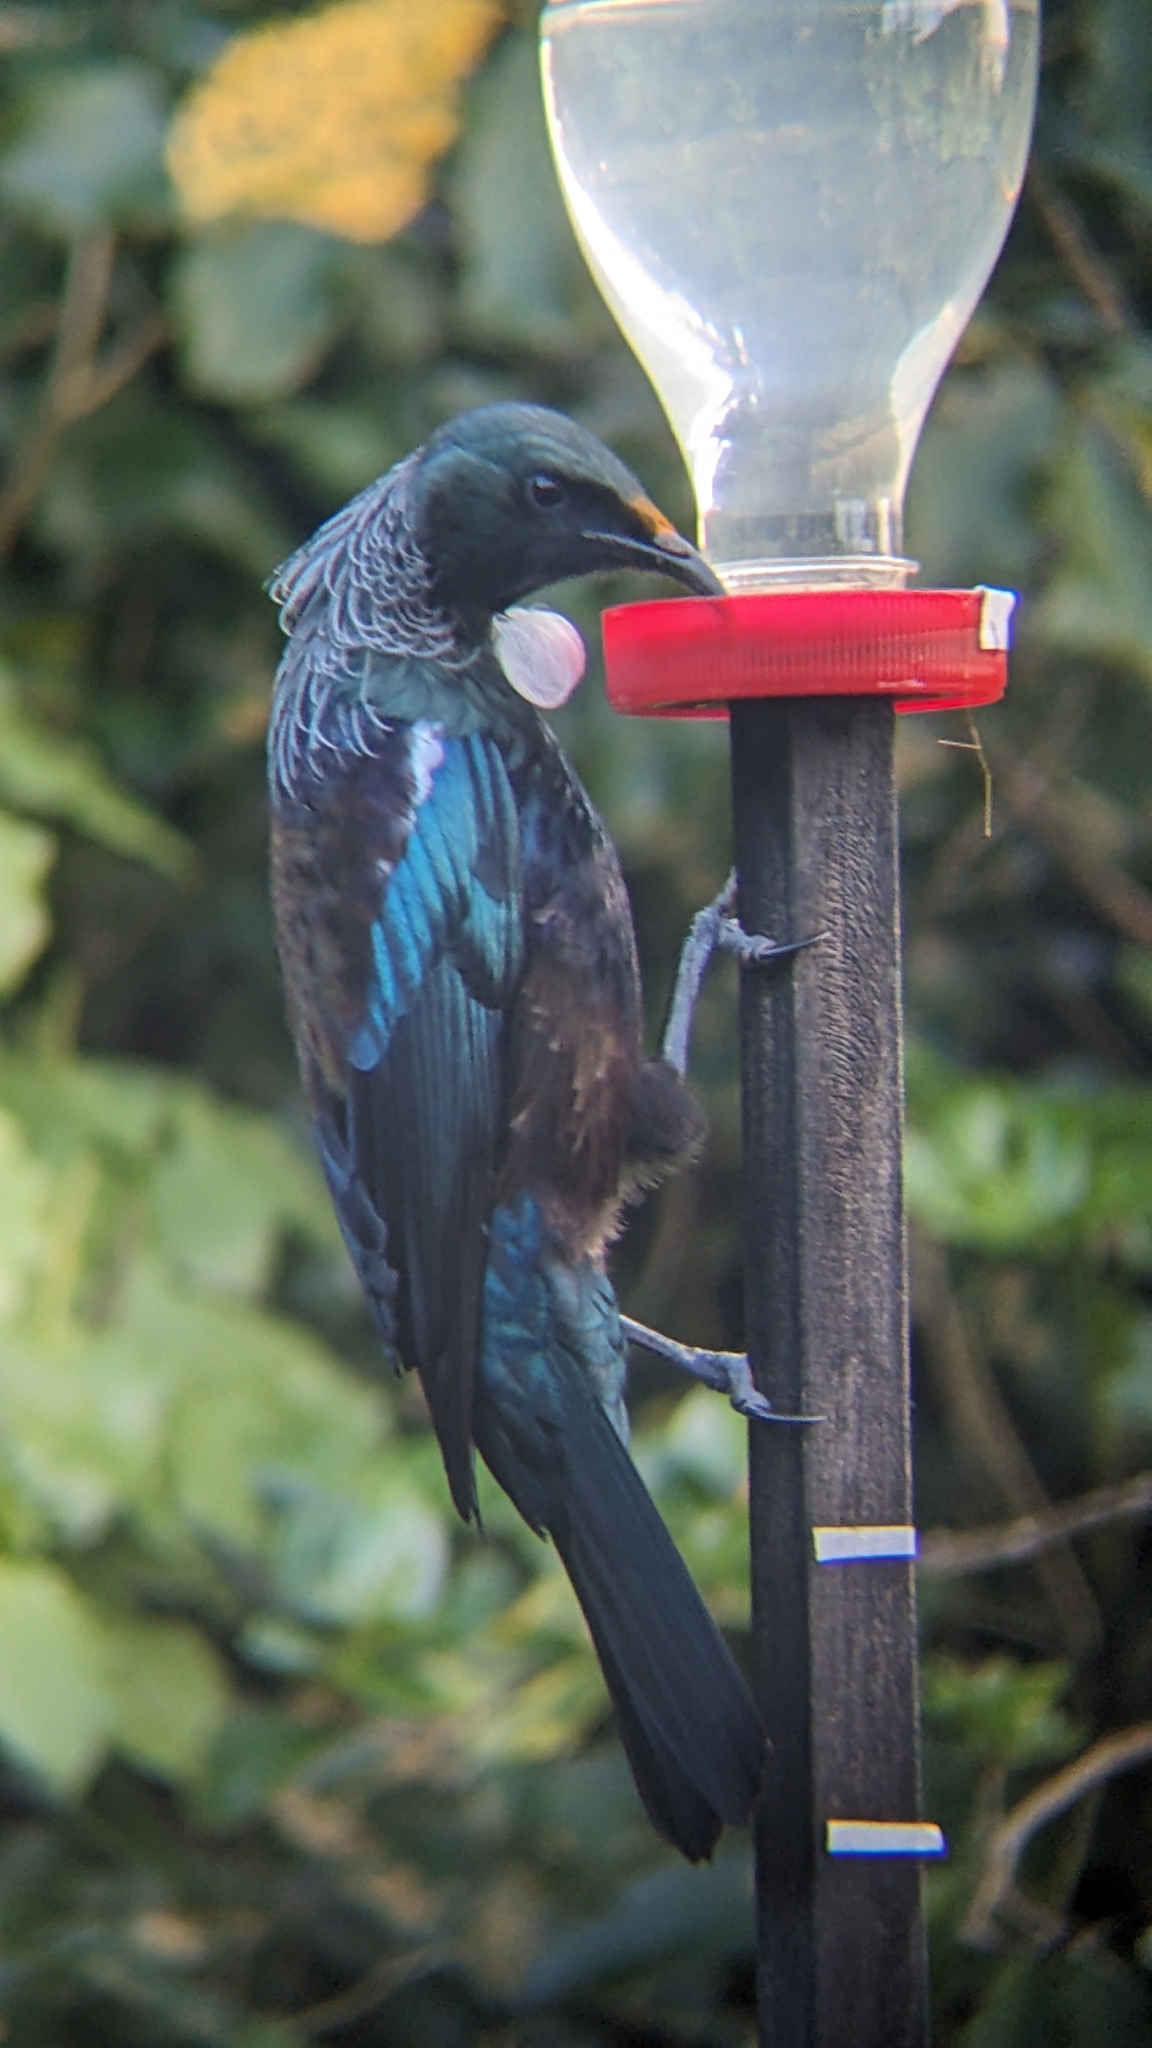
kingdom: Animalia
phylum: Chordata
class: Aves
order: Passeriformes
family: Meliphagidae
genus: Prosthemadera
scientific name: Prosthemadera novaeseelandiae
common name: Tui
